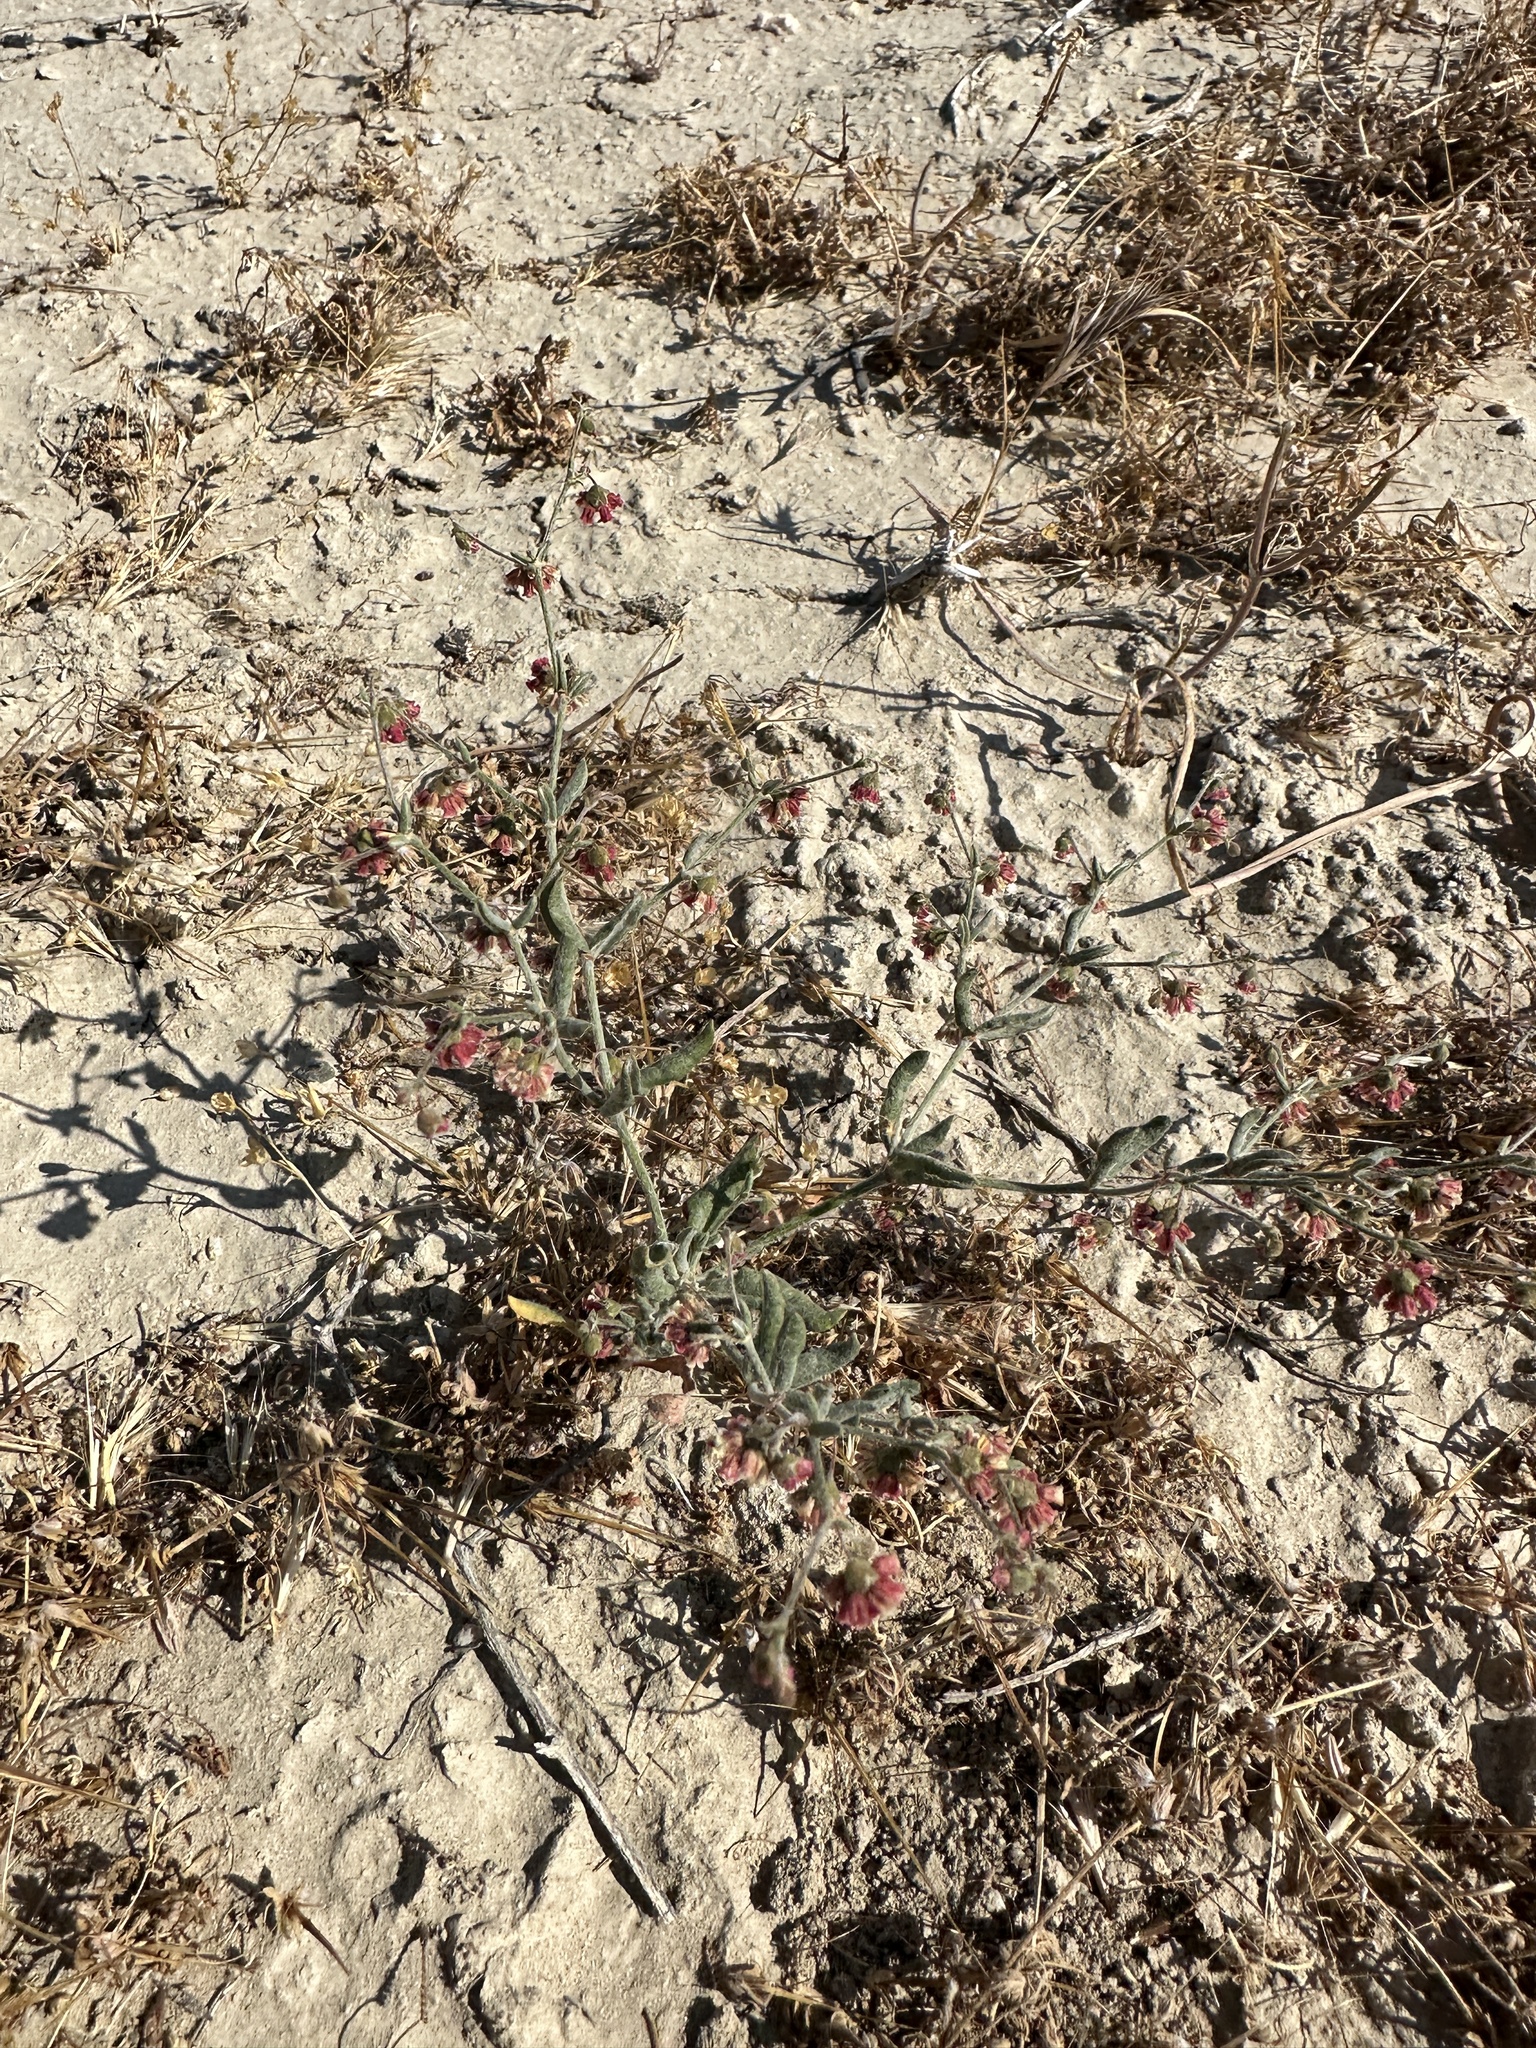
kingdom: Plantae
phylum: Tracheophyta
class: Magnoliopsida
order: Caryophyllales
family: Polygonaceae
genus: Eriogonum
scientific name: Eriogonum gracillimum
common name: Rose-and-white wild buckwheat
